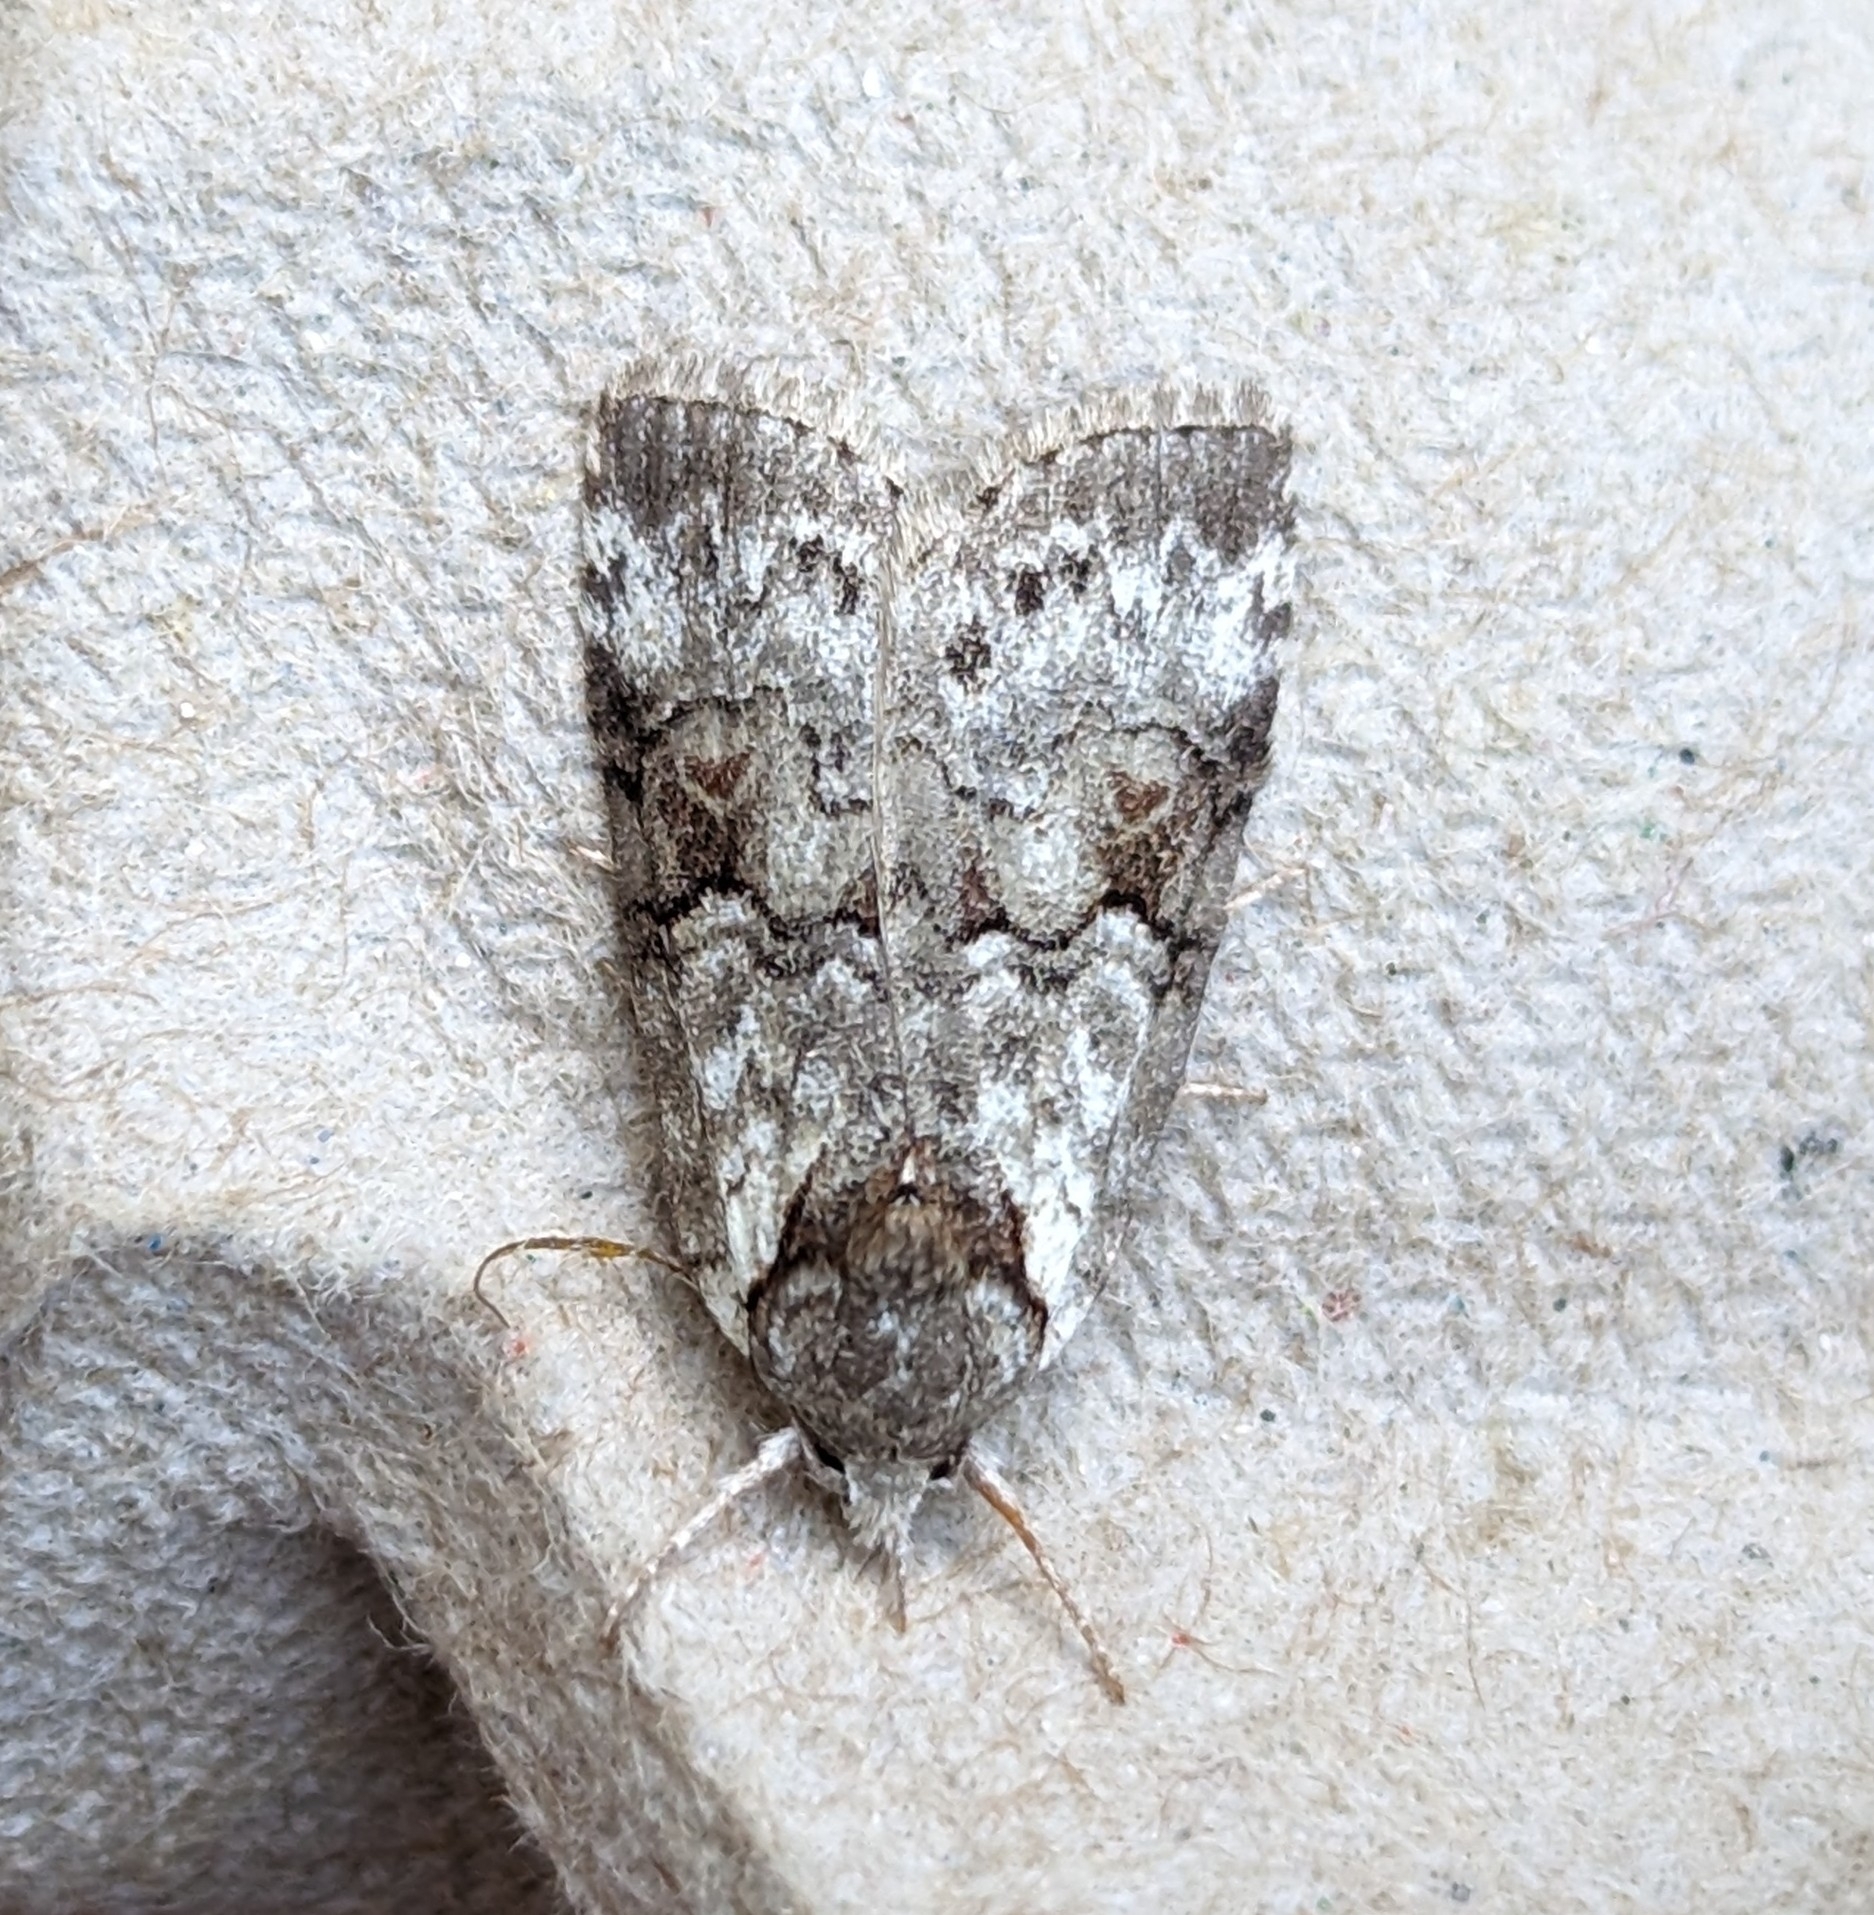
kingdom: Animalia
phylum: Arthropoda
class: Insecta
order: Lepidoptera
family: Nolidae
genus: Nycteola
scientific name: Nycteola cinereana
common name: Grey midget moth
